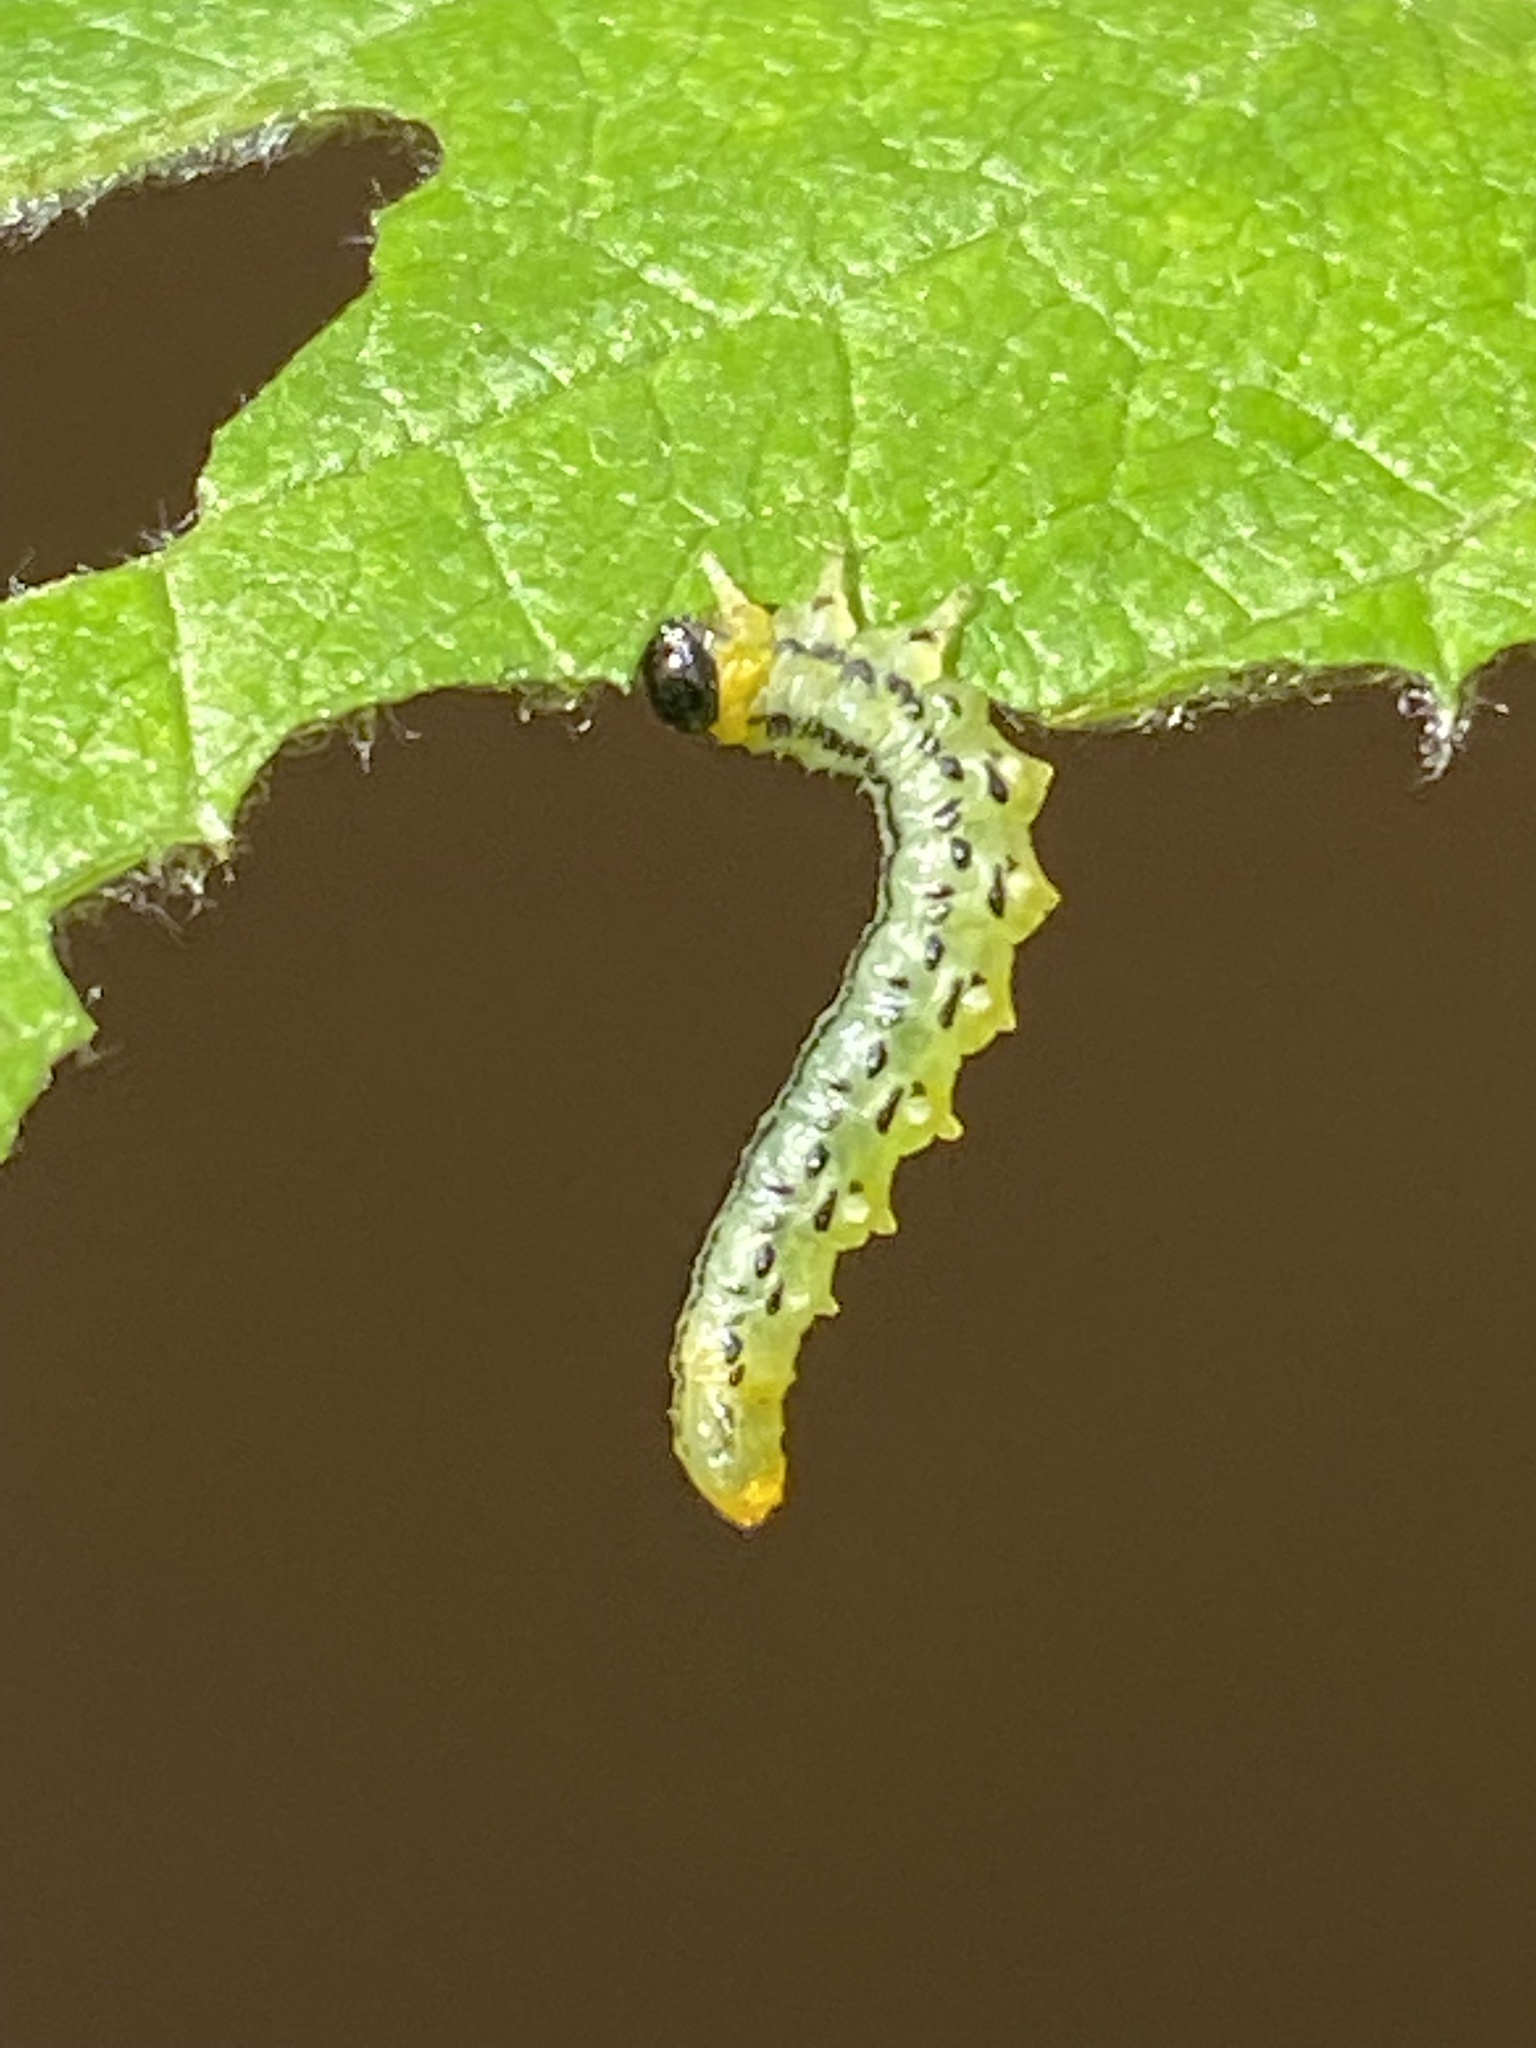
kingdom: Animalia
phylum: Arthropoda
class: Insecta
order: Hymenoptera
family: Tenthredinidae
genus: Nematus
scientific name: Nematus pavidus
